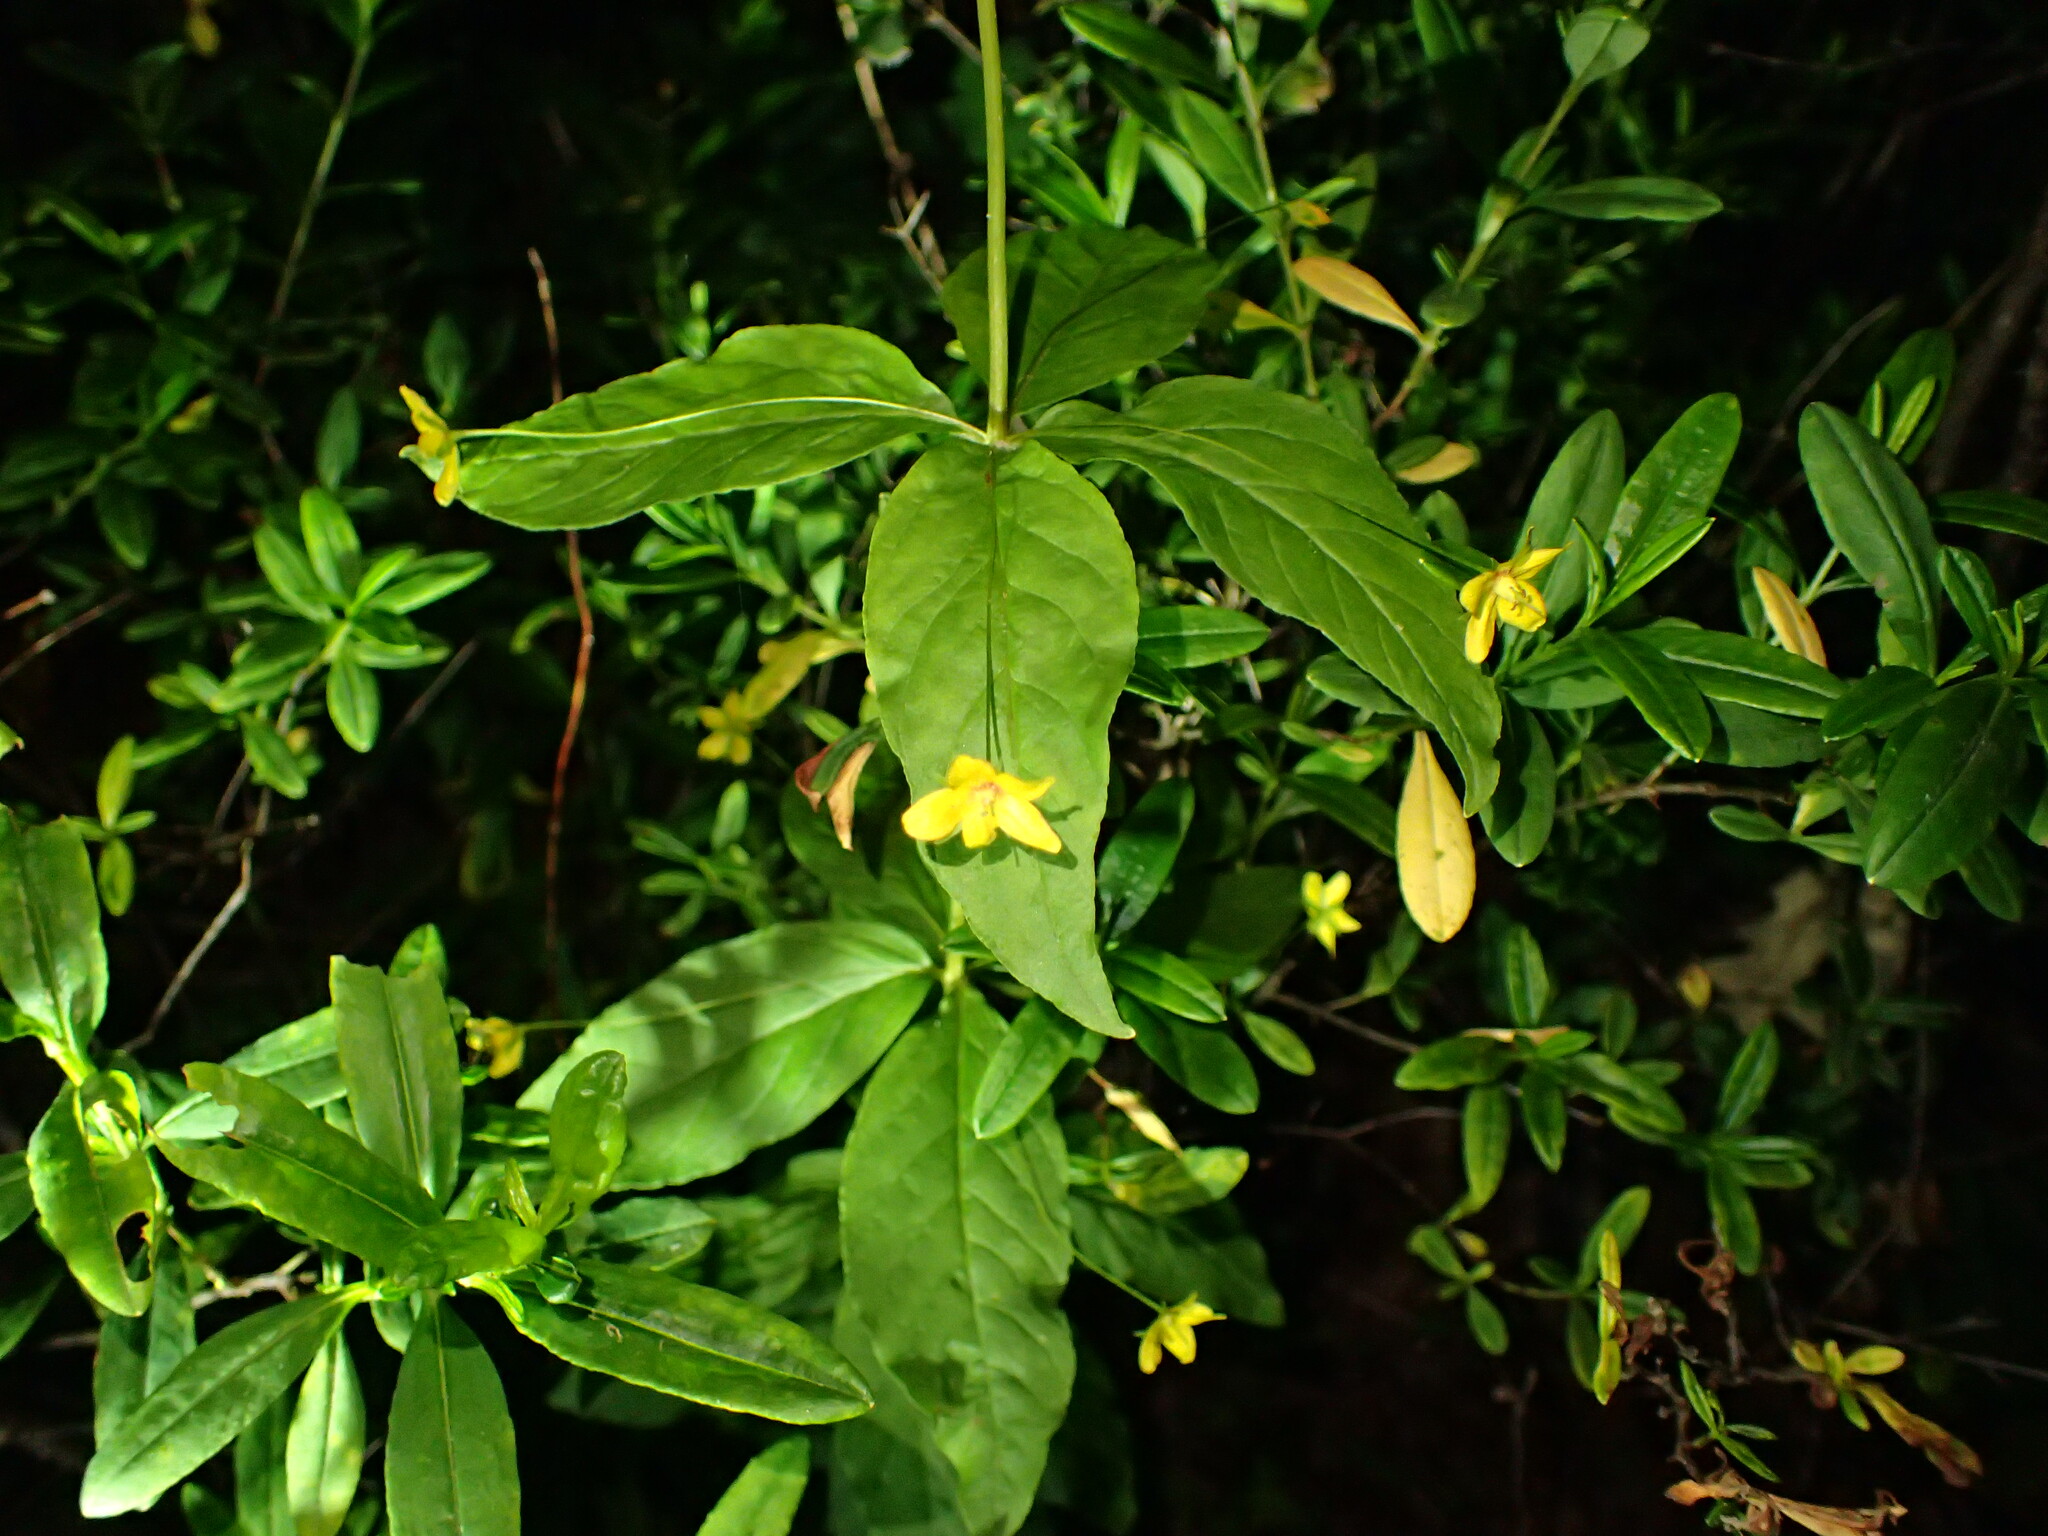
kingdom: Plantae
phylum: Tracheophyta
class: Magnoliopsida
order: Ericales
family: Primulaceae
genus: Lysimachia
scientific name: Lysimachia quadrifolia
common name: Whorled loosestrife
